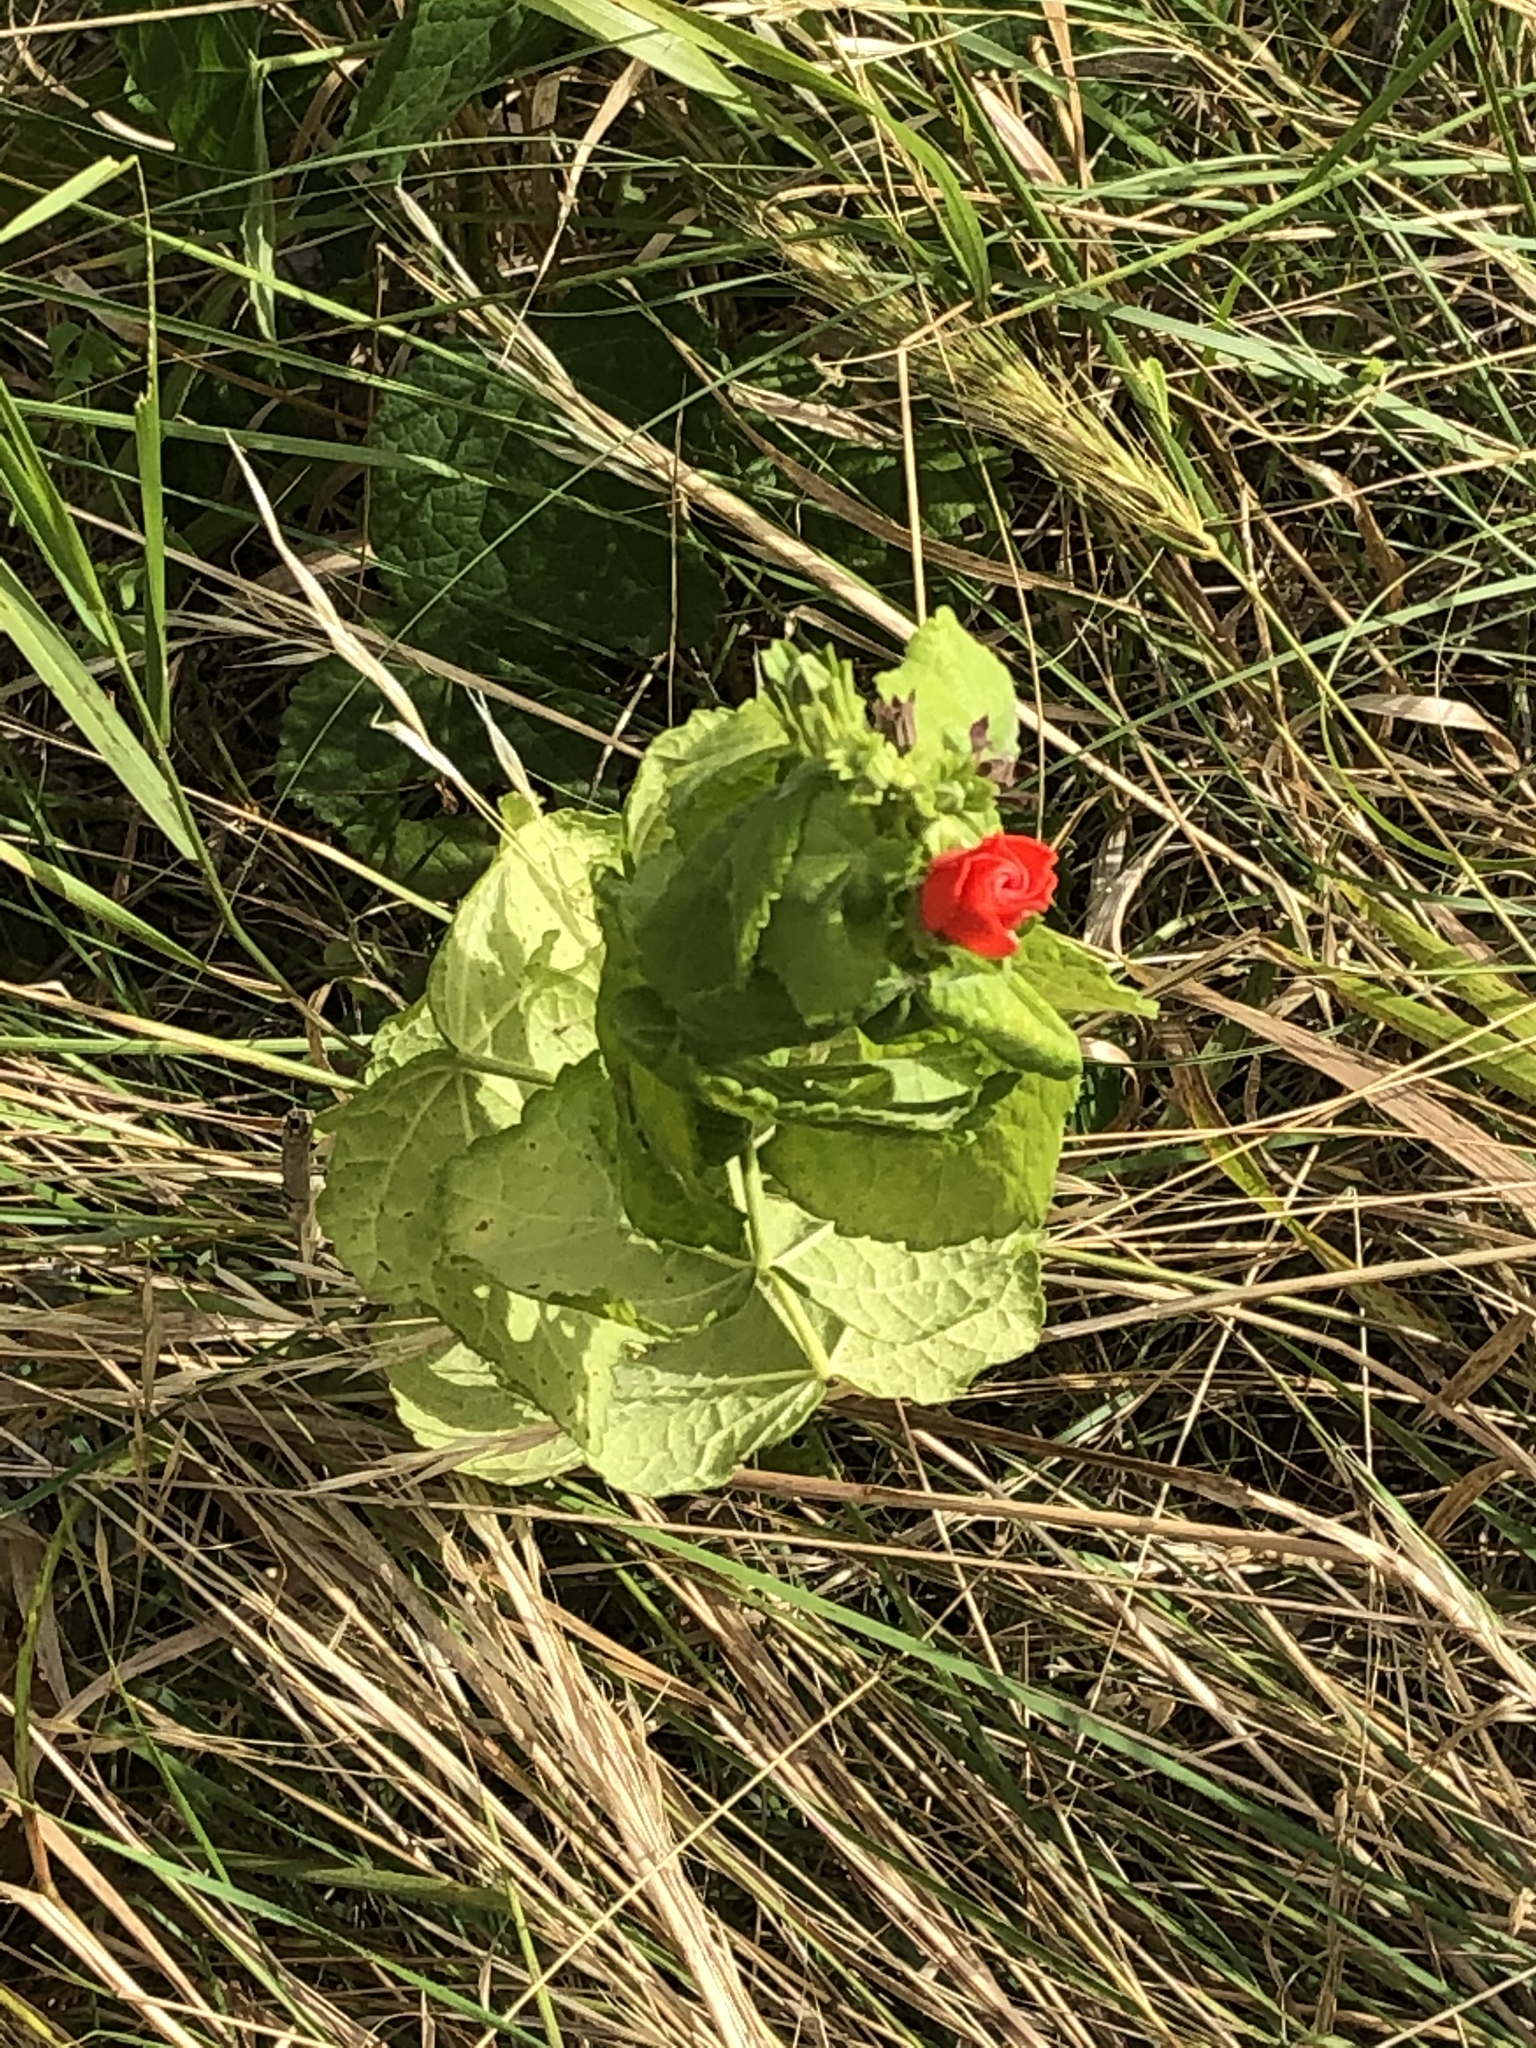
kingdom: Plantae
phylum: Tracheophyta
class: Magnoliopsida
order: Malvales
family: Malvaceae
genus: Malvaviscus
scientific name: Malvaviscus arboreus
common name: Wax mallow
